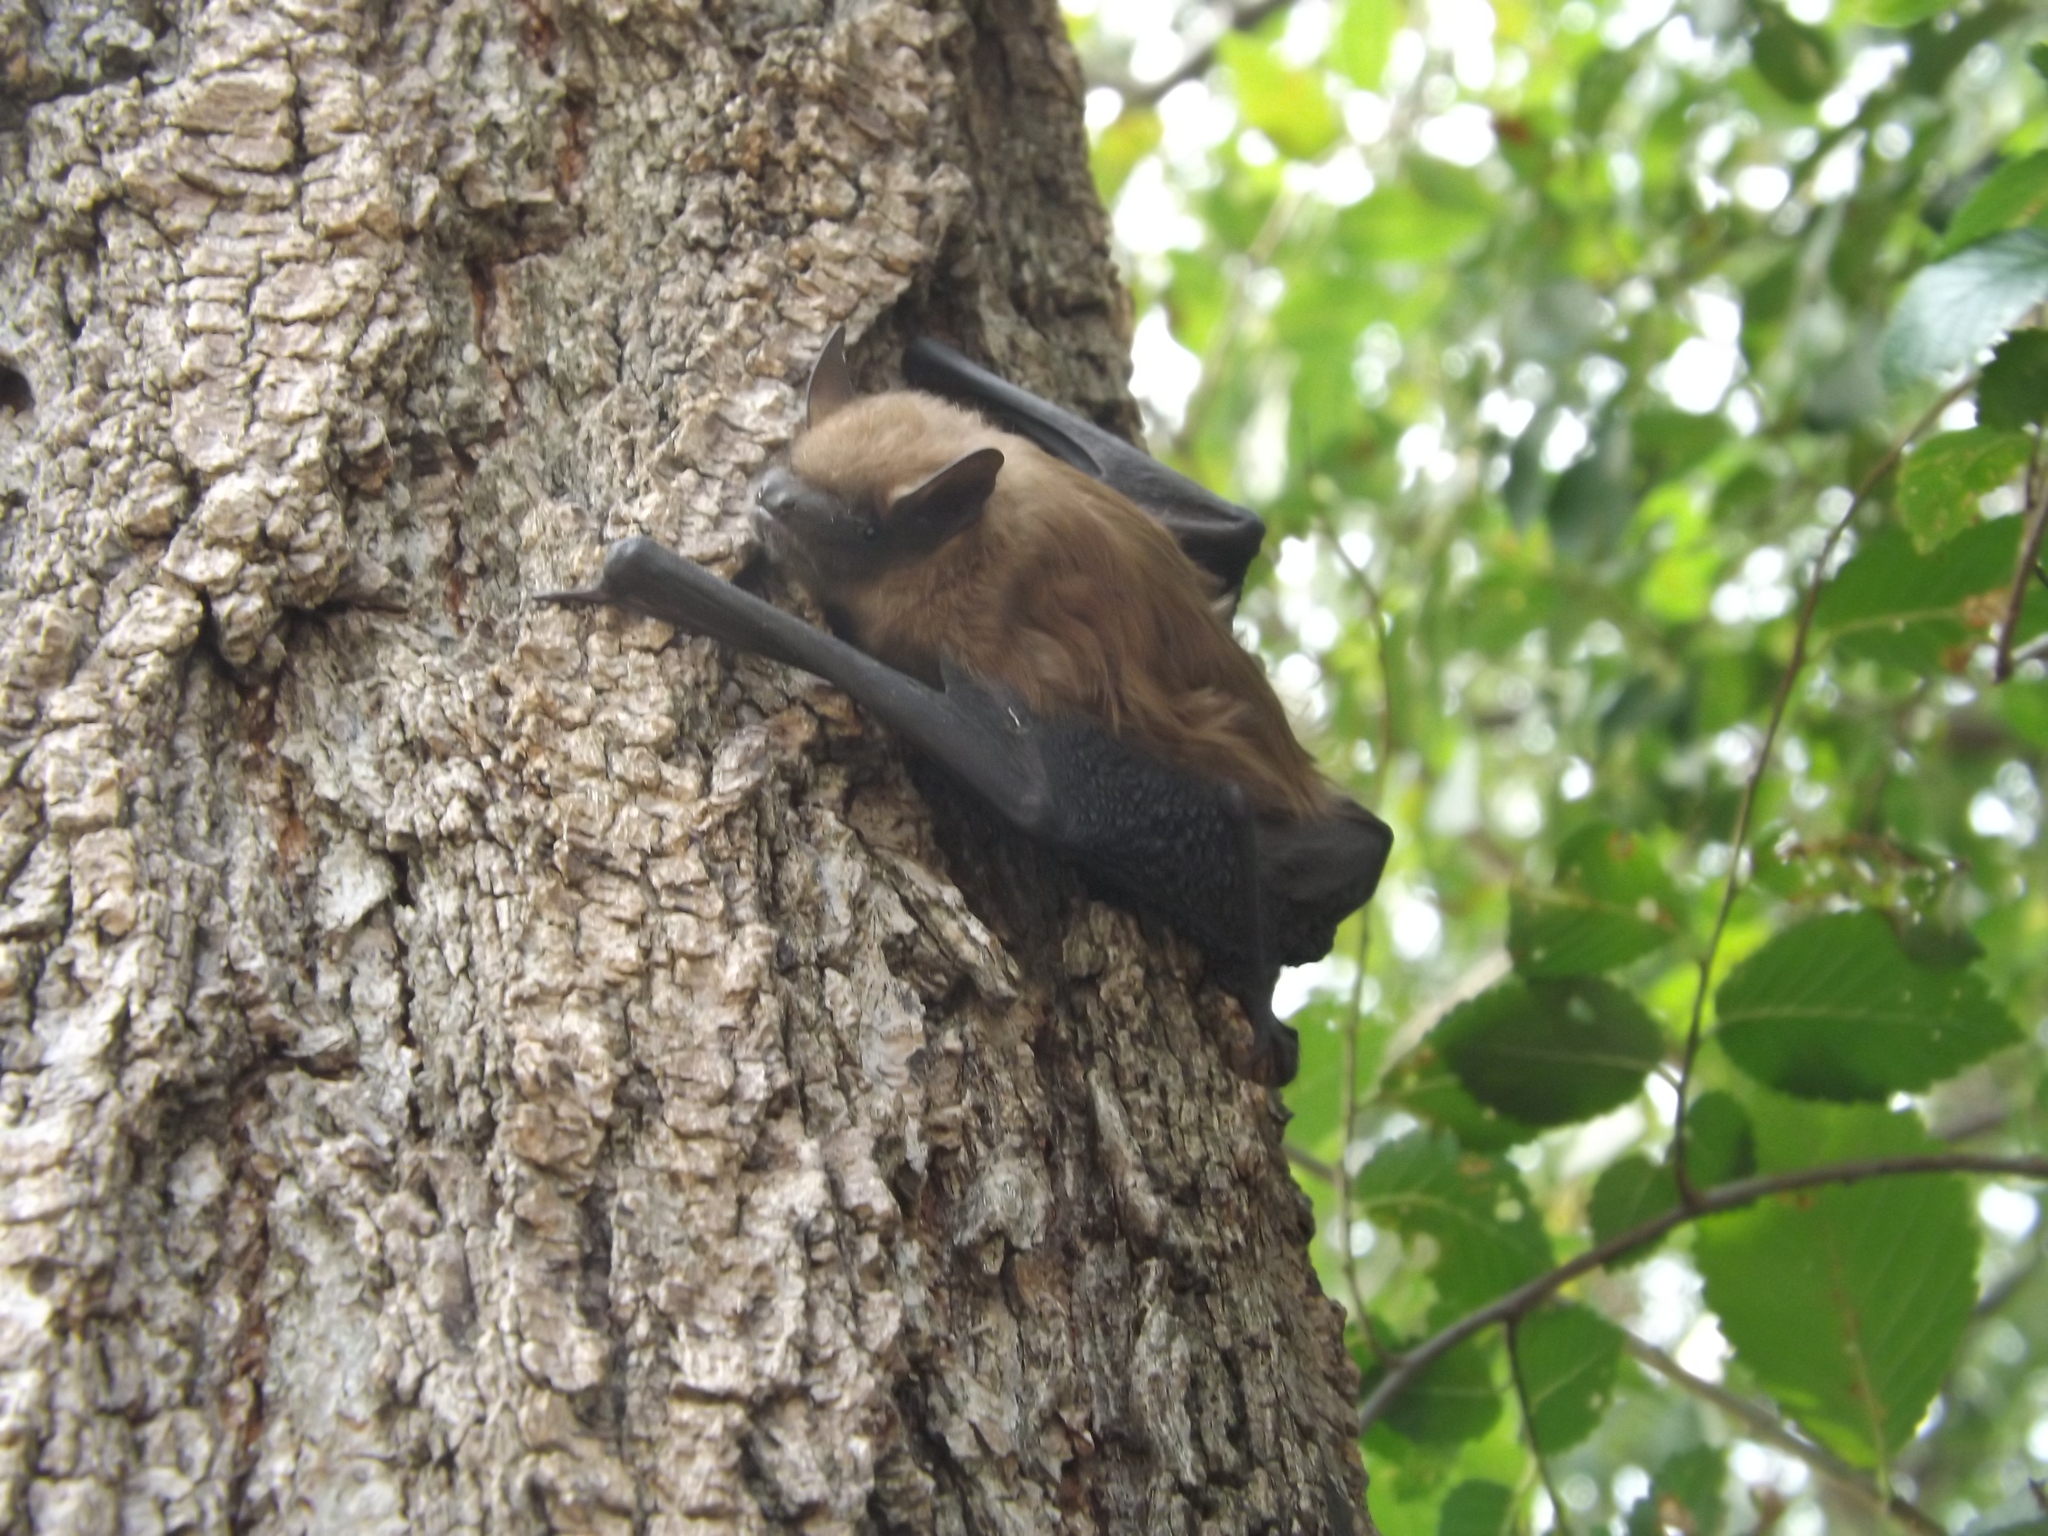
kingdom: Animalia
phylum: Chordata
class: Mammalia
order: Chiroptera
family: Vespertilionidae
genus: Eptesicus
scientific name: Eptesicus fuscus
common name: Big brown bat
